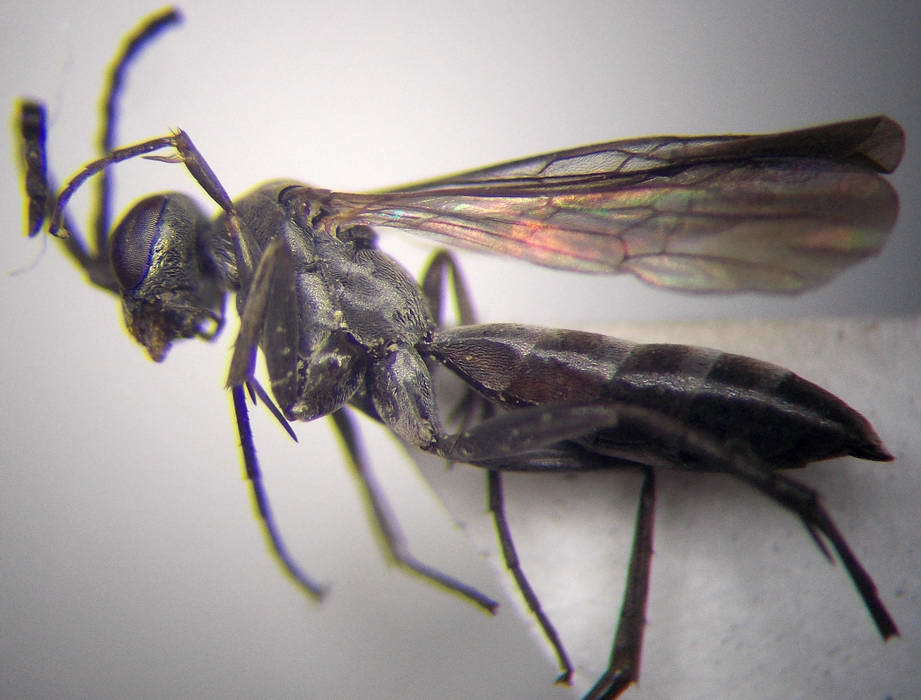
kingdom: Animalia
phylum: Arthropoda
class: Insecta
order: Hymenoptera
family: Pompilidae
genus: Microphadnus
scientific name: Microphadnus pumilus
